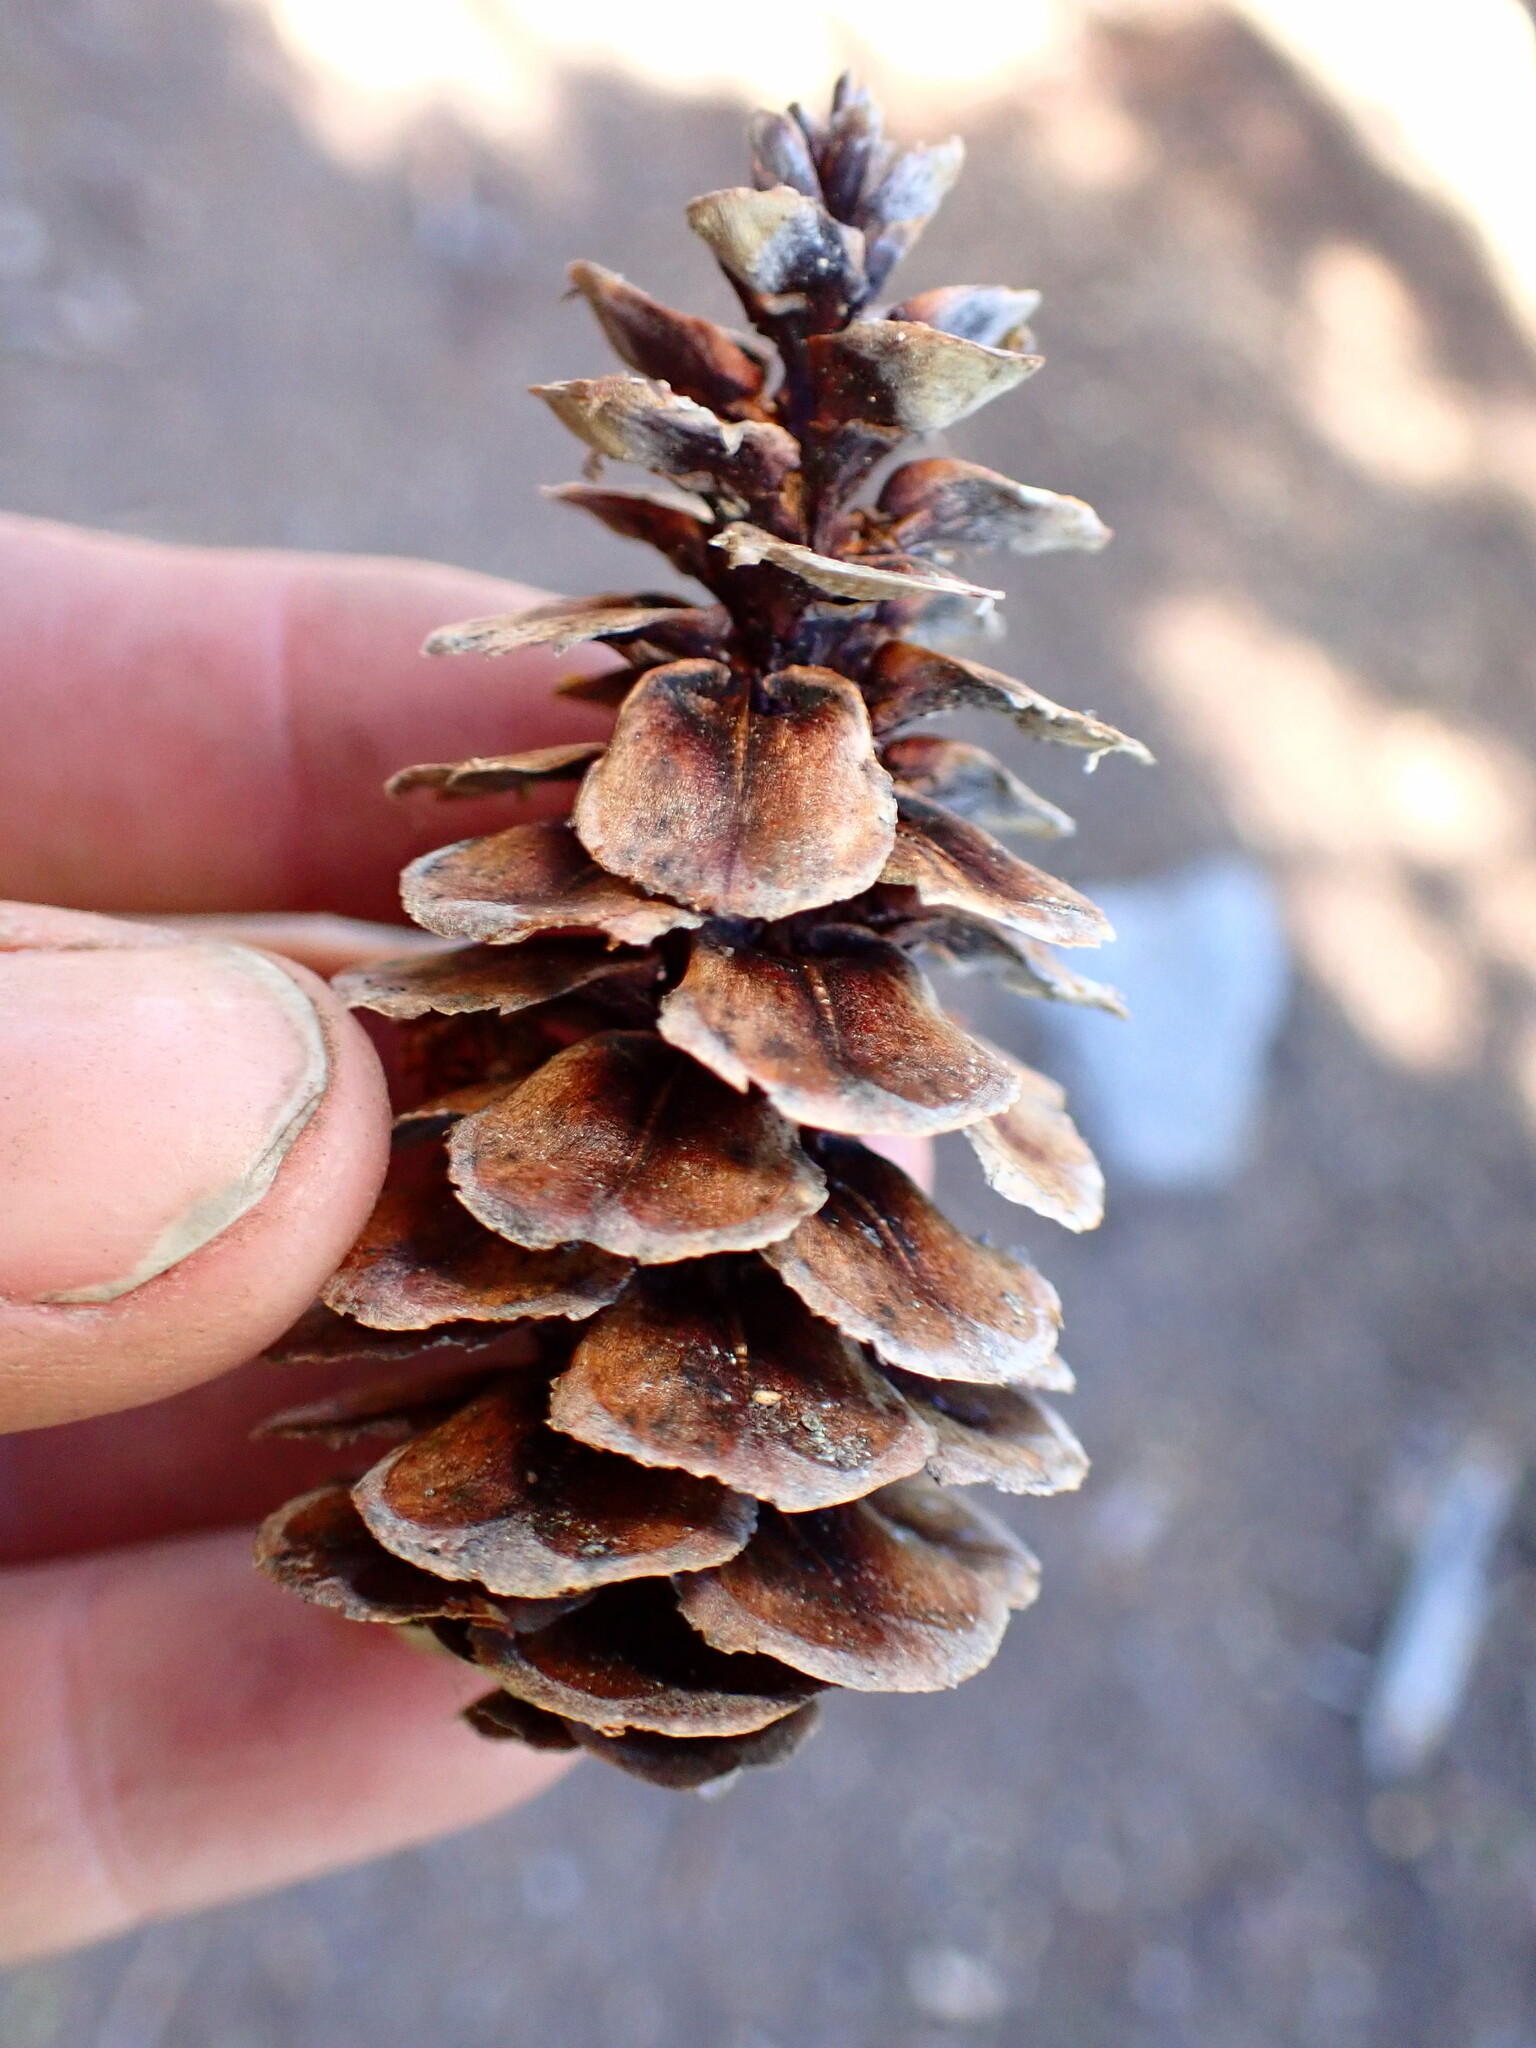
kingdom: Plantae
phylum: Tracheophyta
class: Pinopsida
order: Pinales
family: Pinaceae
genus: Tsuga
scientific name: Tsuga mertensiana
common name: Mountain hemlock
